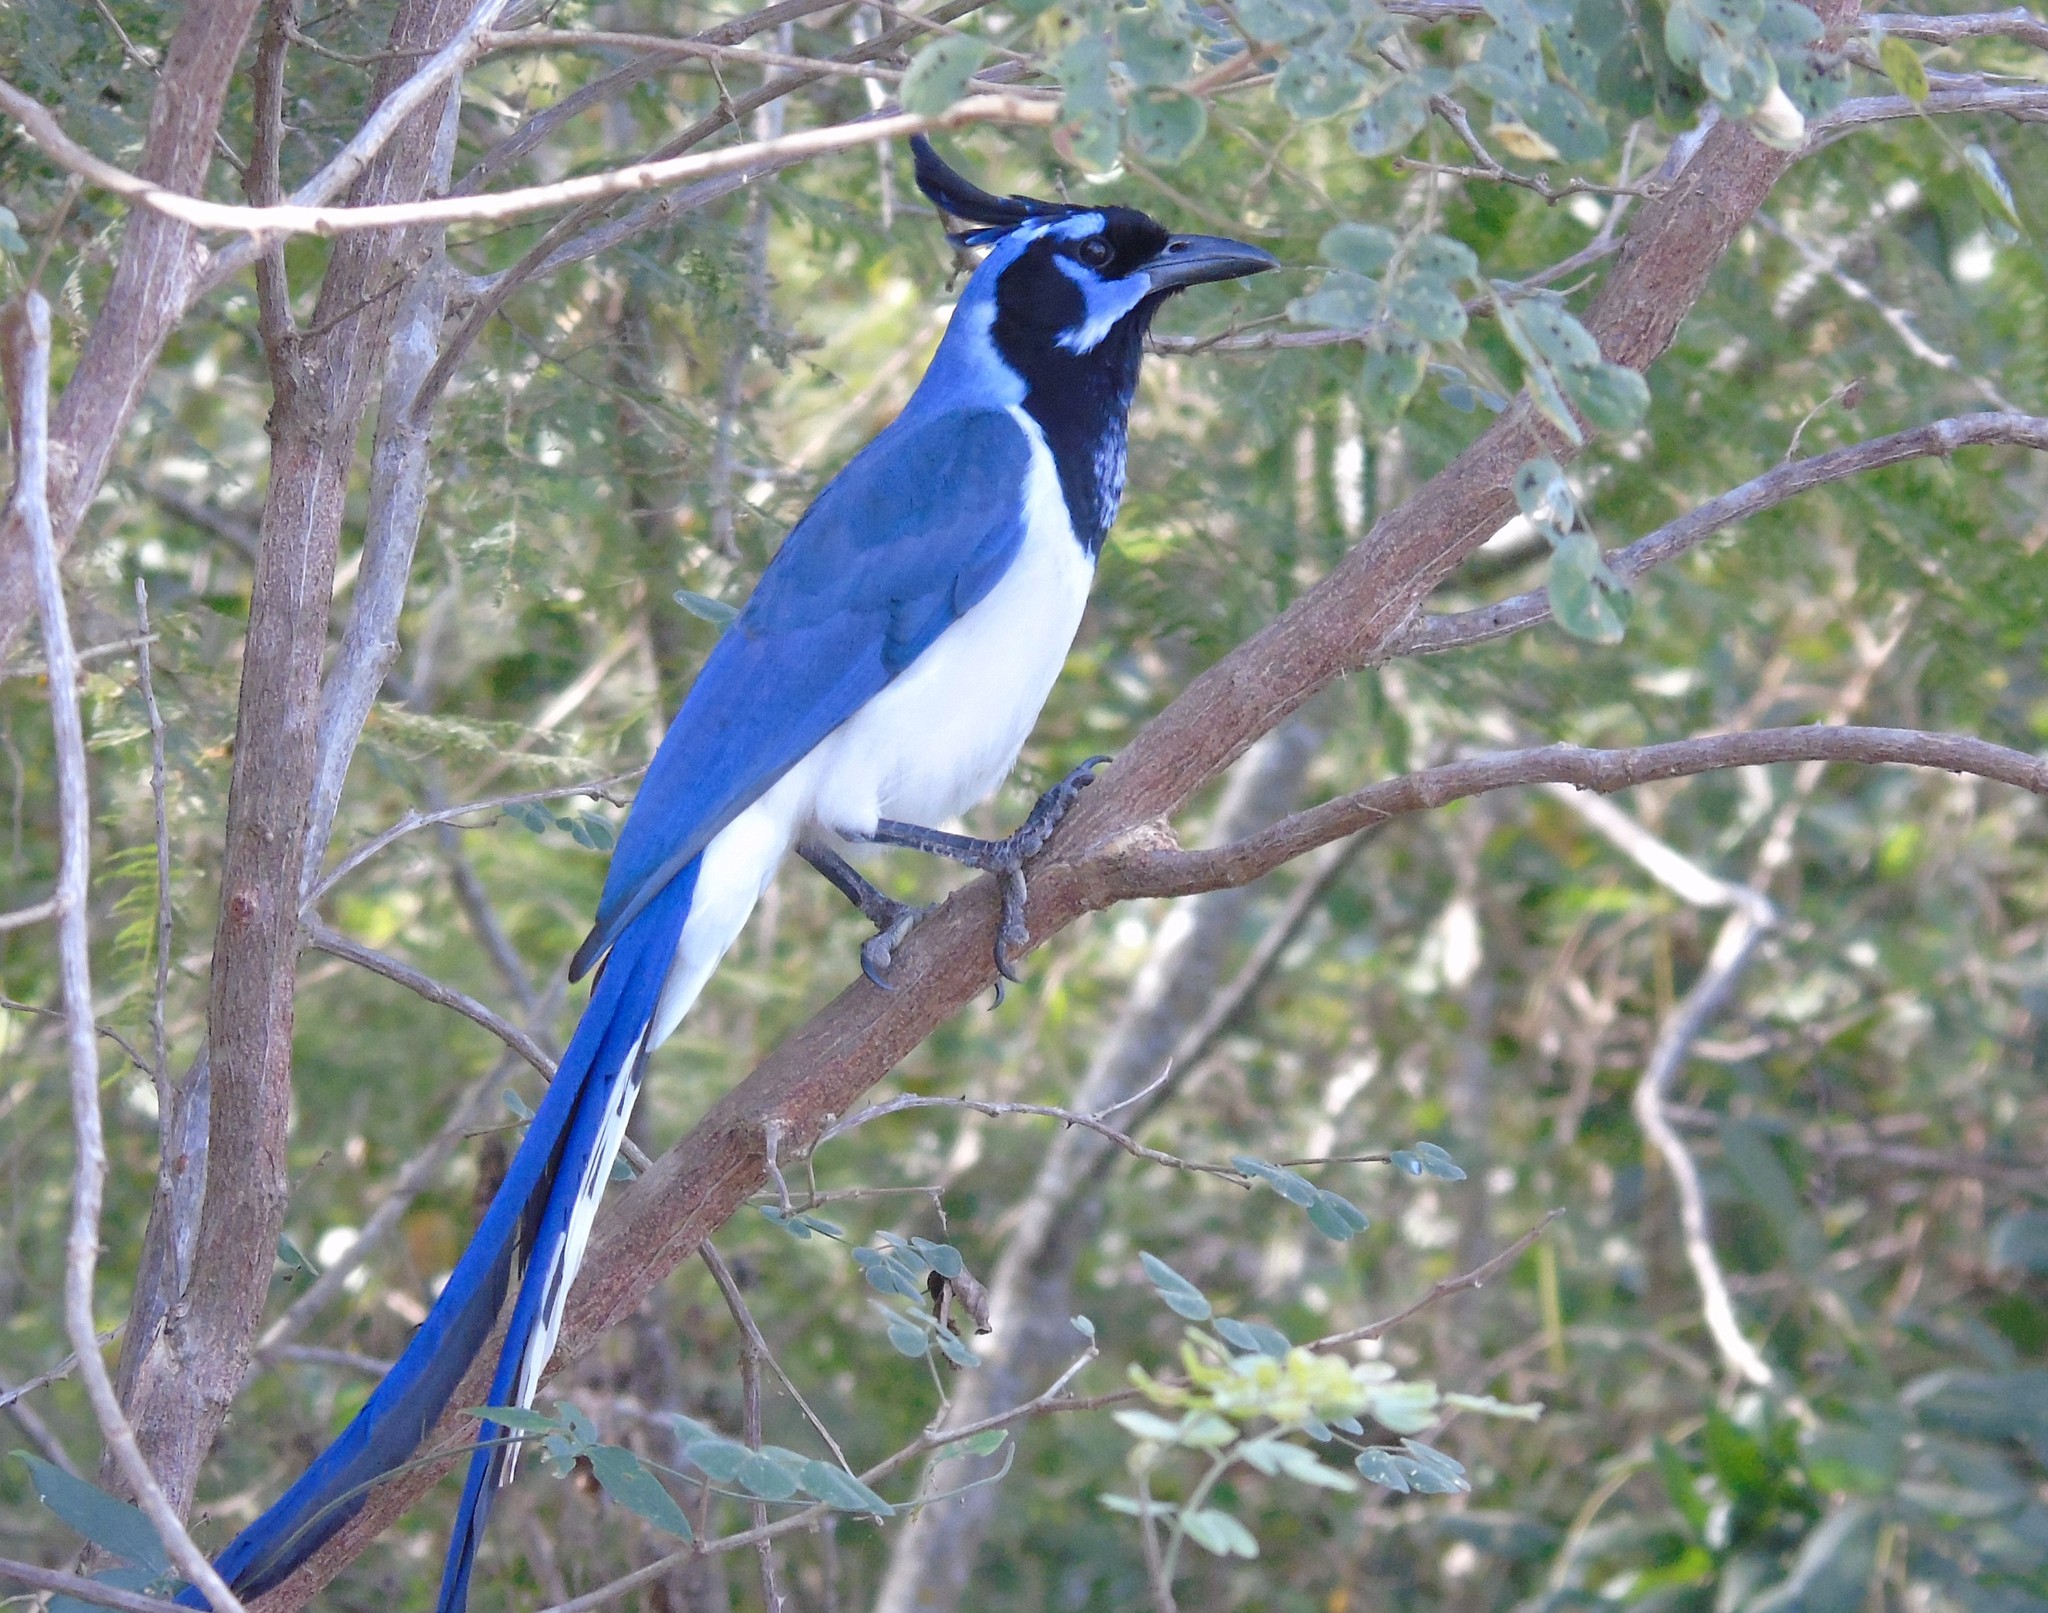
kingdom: Animalia
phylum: Chordata
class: Aves
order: Passeriformes
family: Corvidae
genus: Calocitta
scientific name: Calocitta colliei
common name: Black-throated magpie-jay
